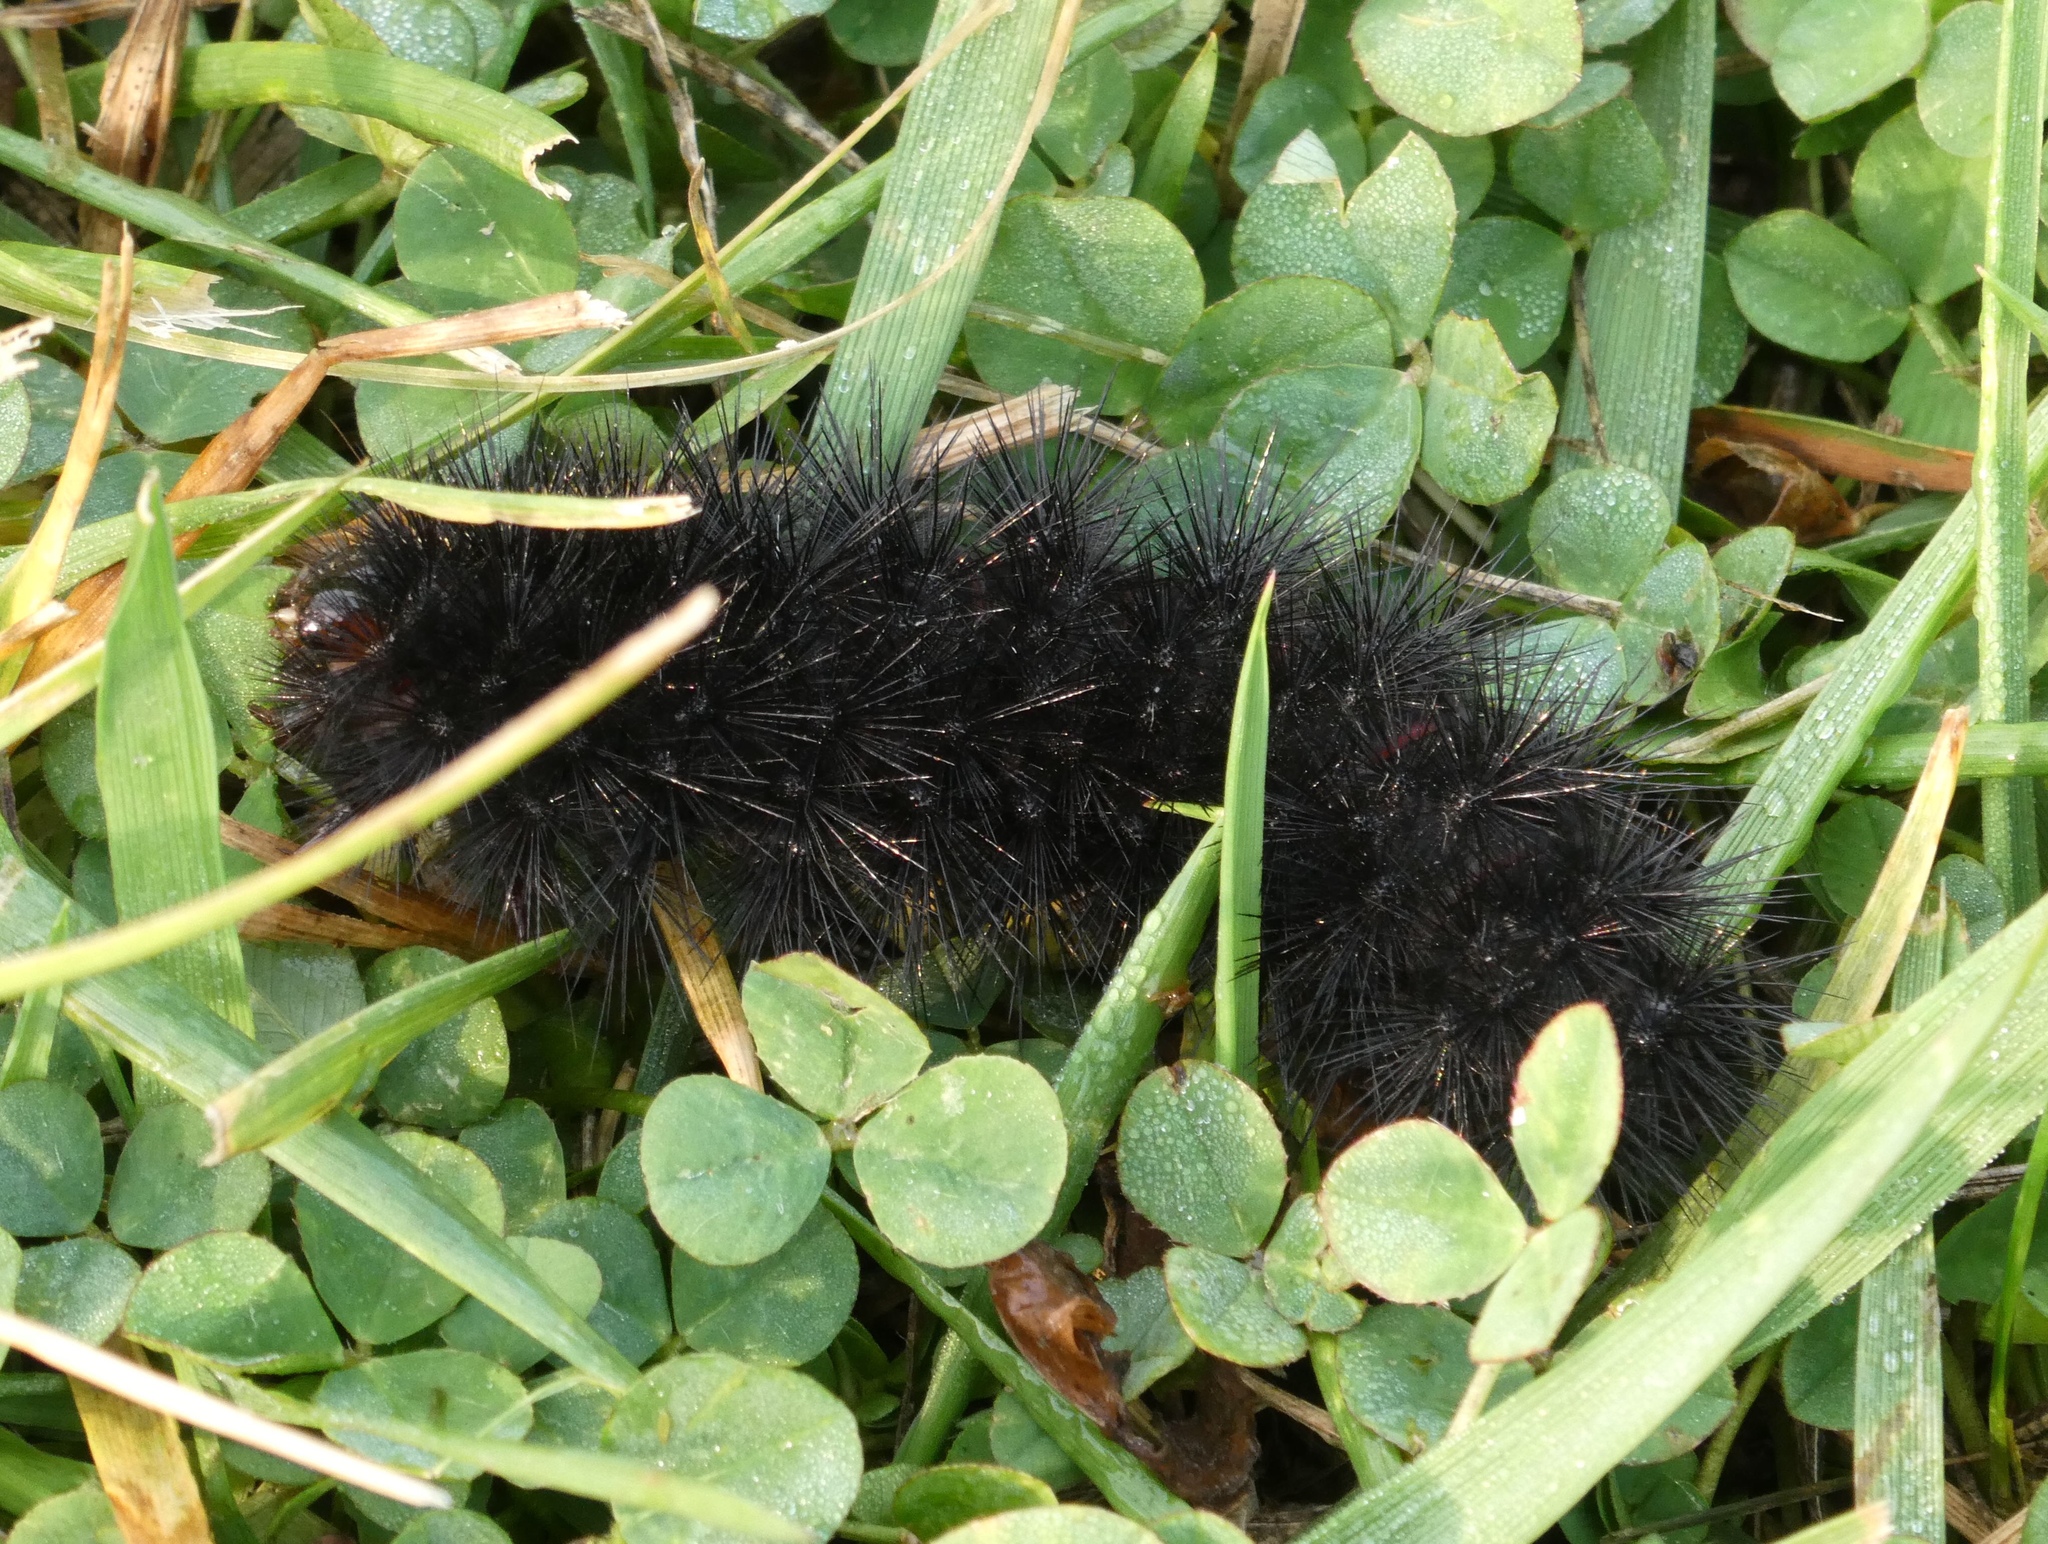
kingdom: Animalia
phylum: Arthropoda
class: Insecta
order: Lepidoptera
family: Erebidae
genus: Hypercompe
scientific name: Hypercompe scribonia
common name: Giant leopard moth
